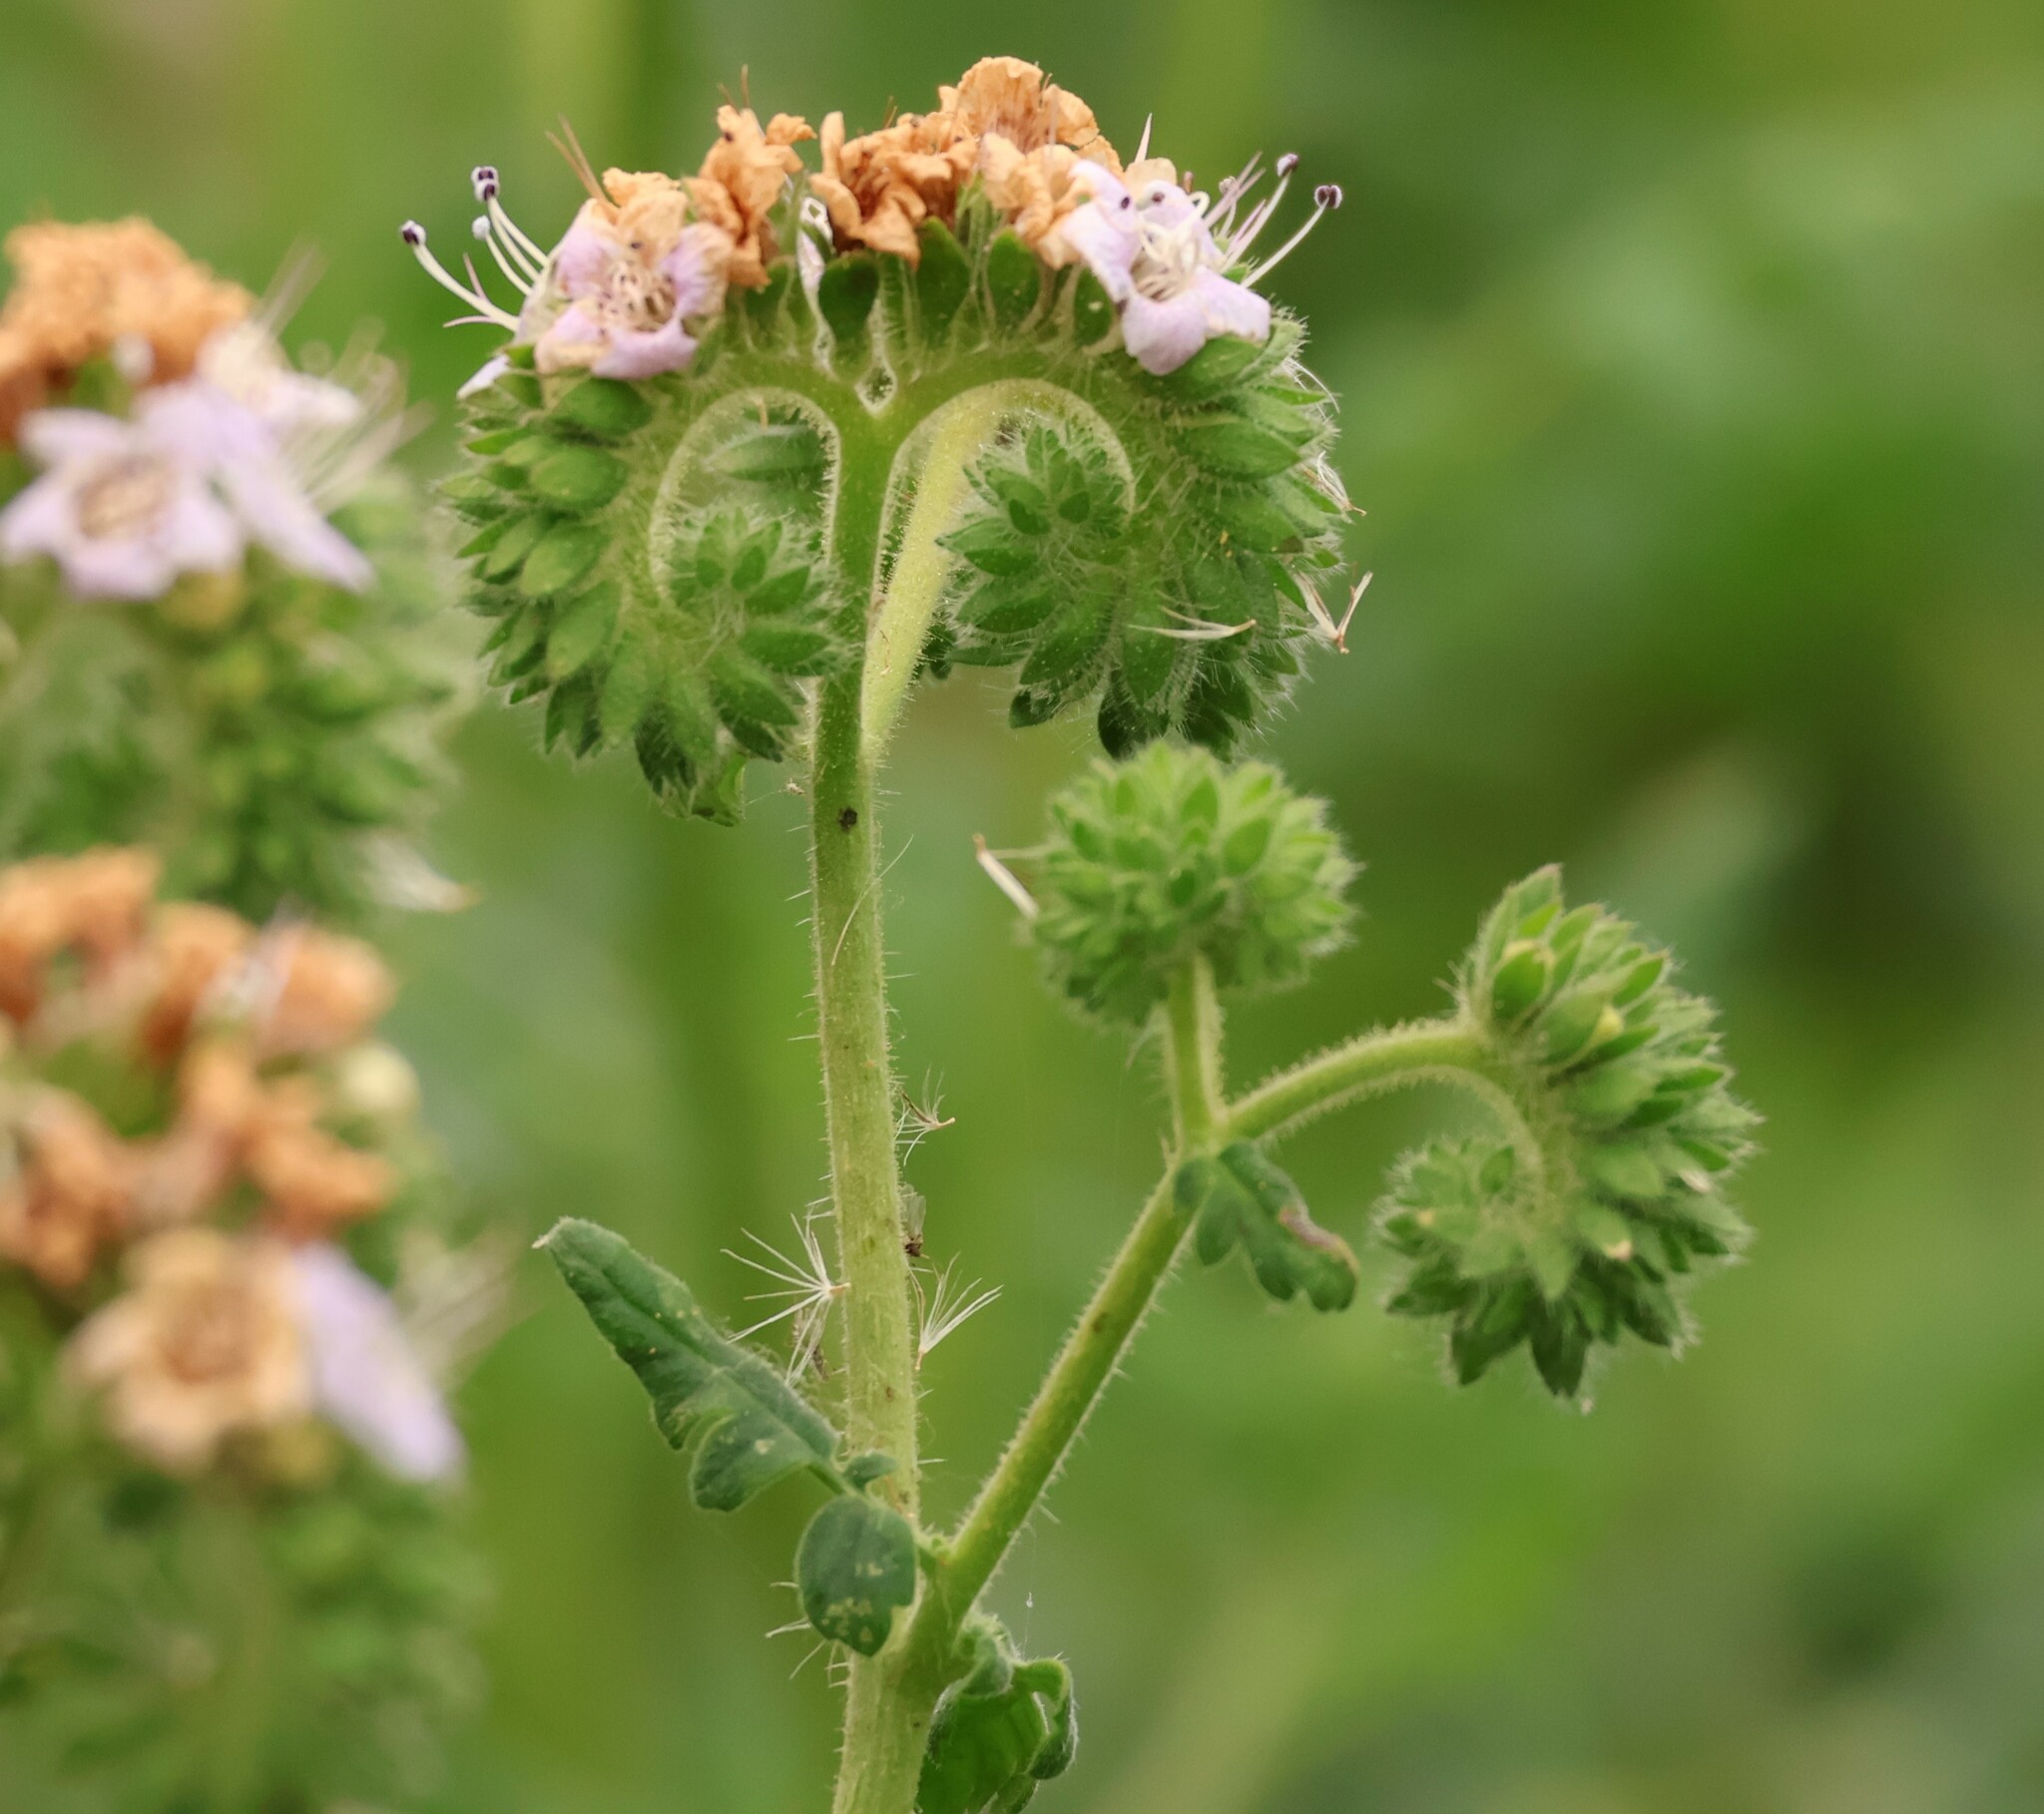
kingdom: Plantae
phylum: Tracheophyta
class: Magnoliopsida
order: Boraginales
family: Hydrophyllaceae
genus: Phacelia
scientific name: Phacelia ramosissima
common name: Branching phacelia
